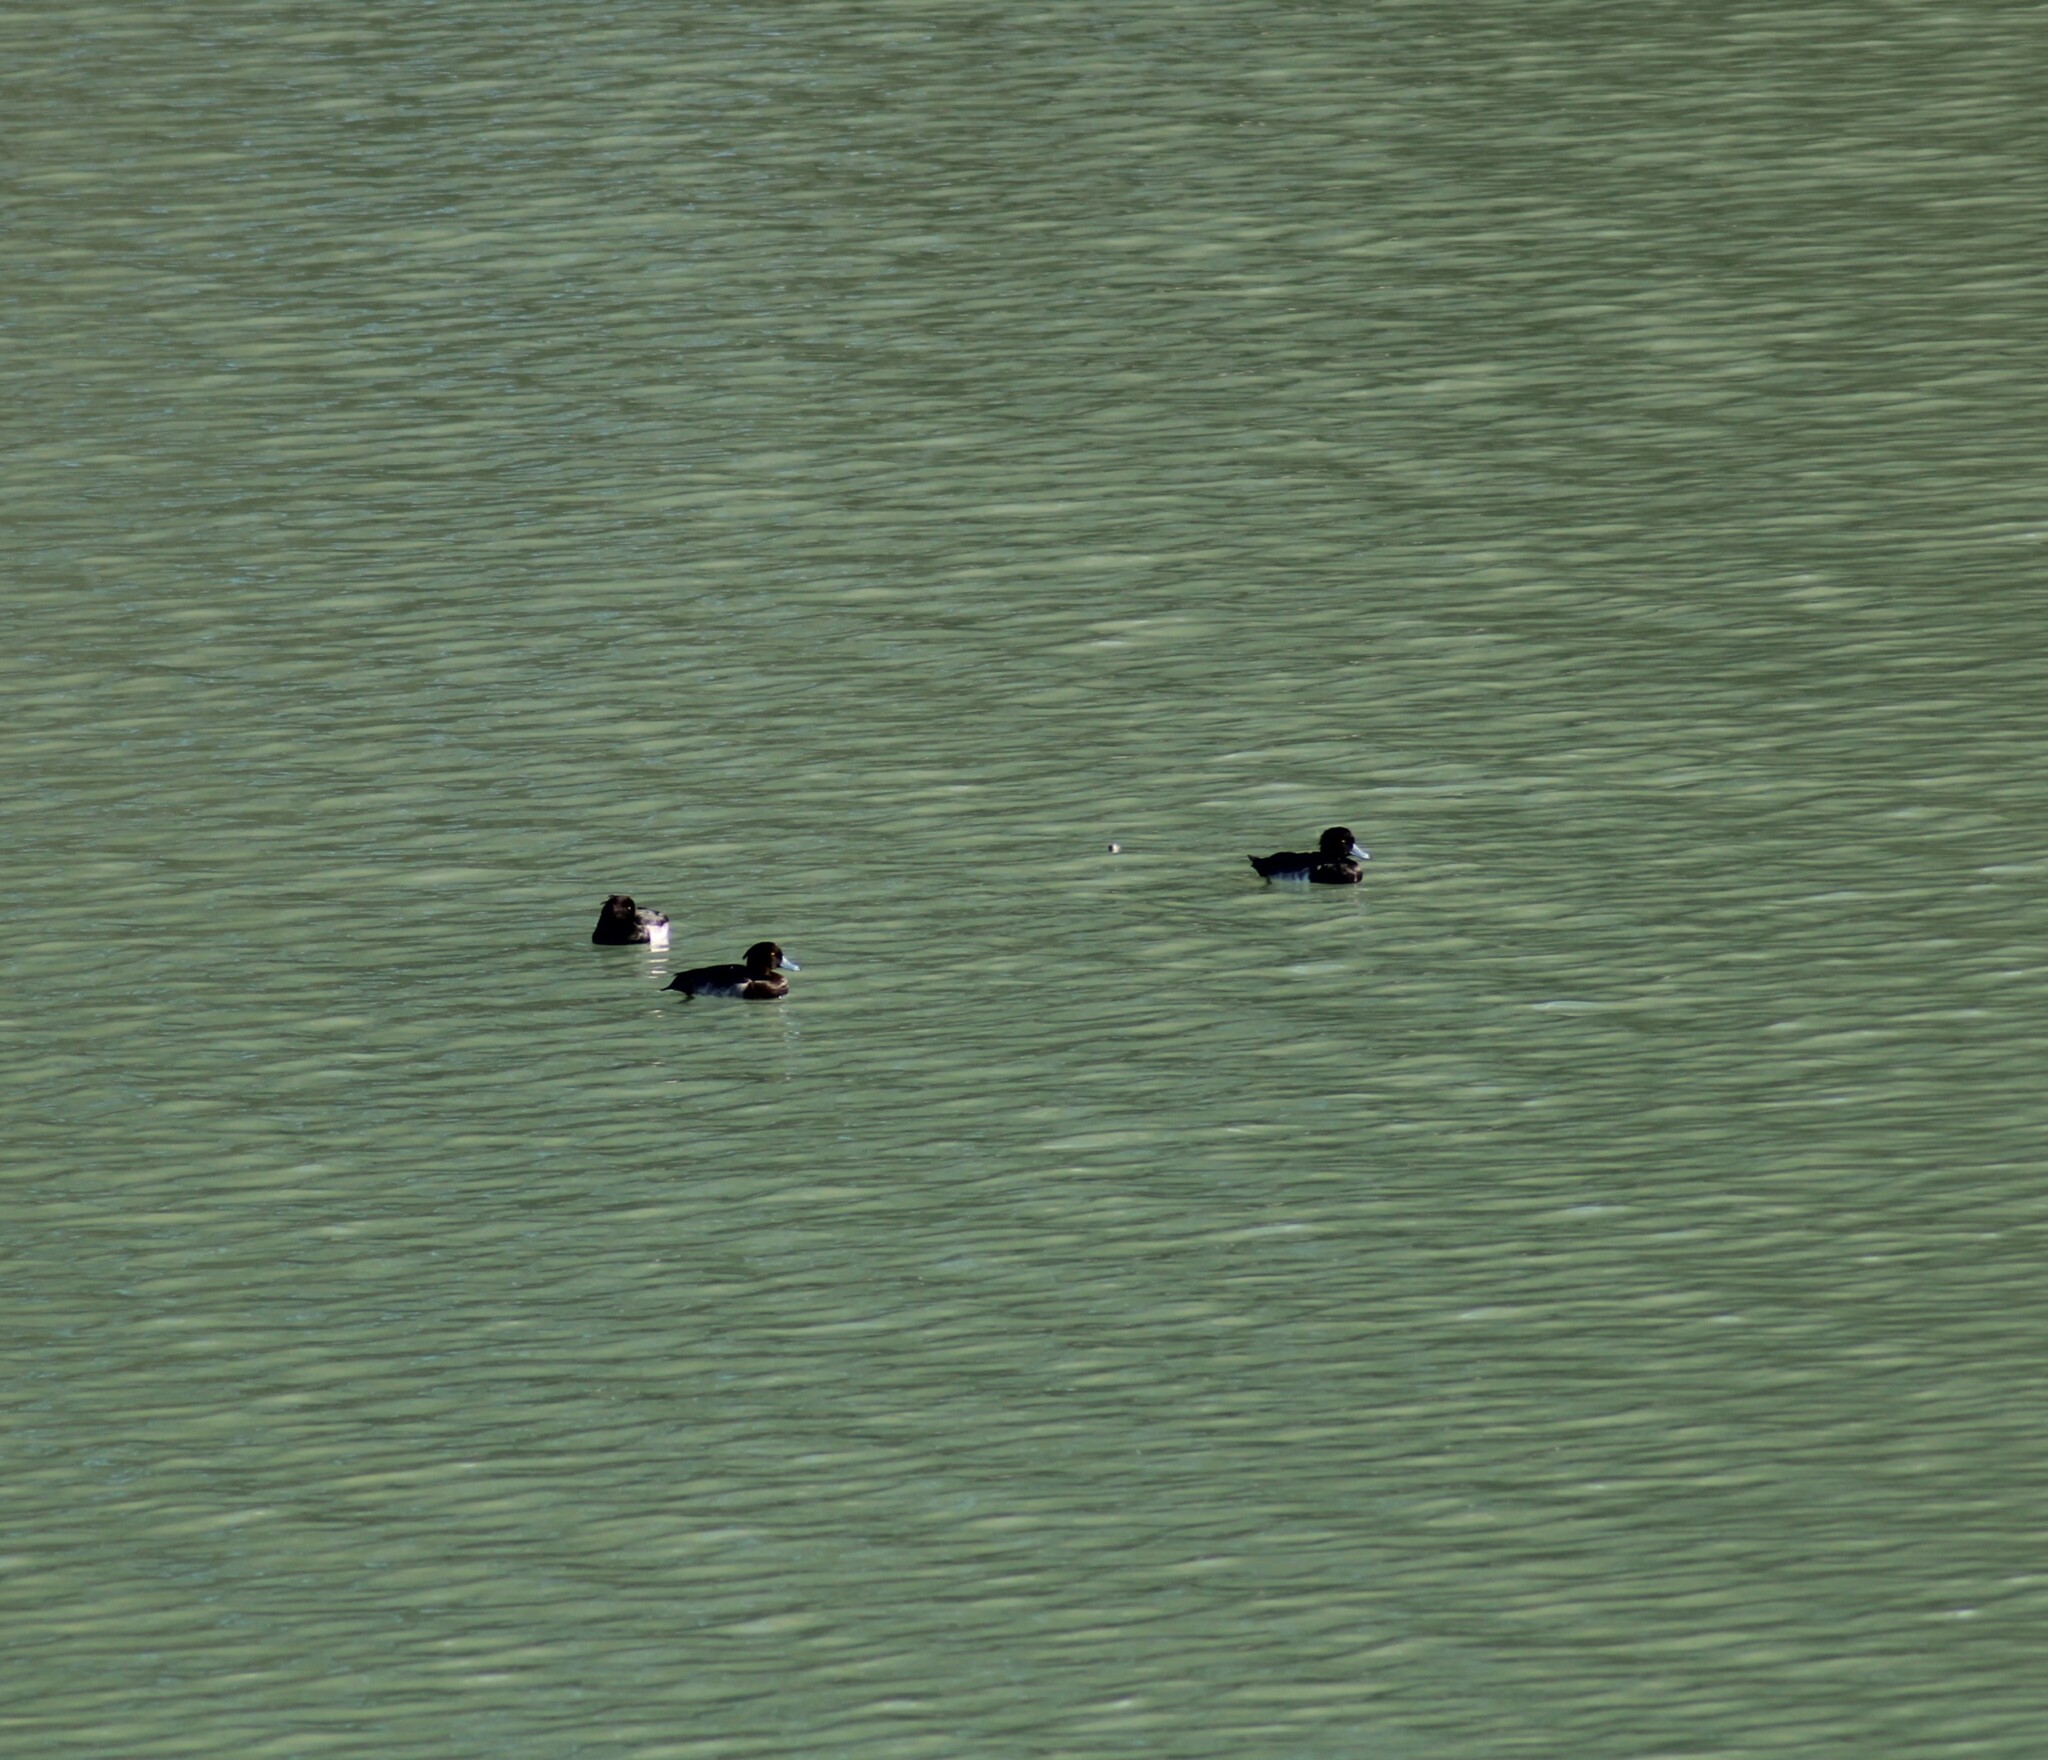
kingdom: Animalia
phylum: Chordata
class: Aves
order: Anseriformes
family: Anatidae
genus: Aythya
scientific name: Aythya fuligula
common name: Tufted duck
